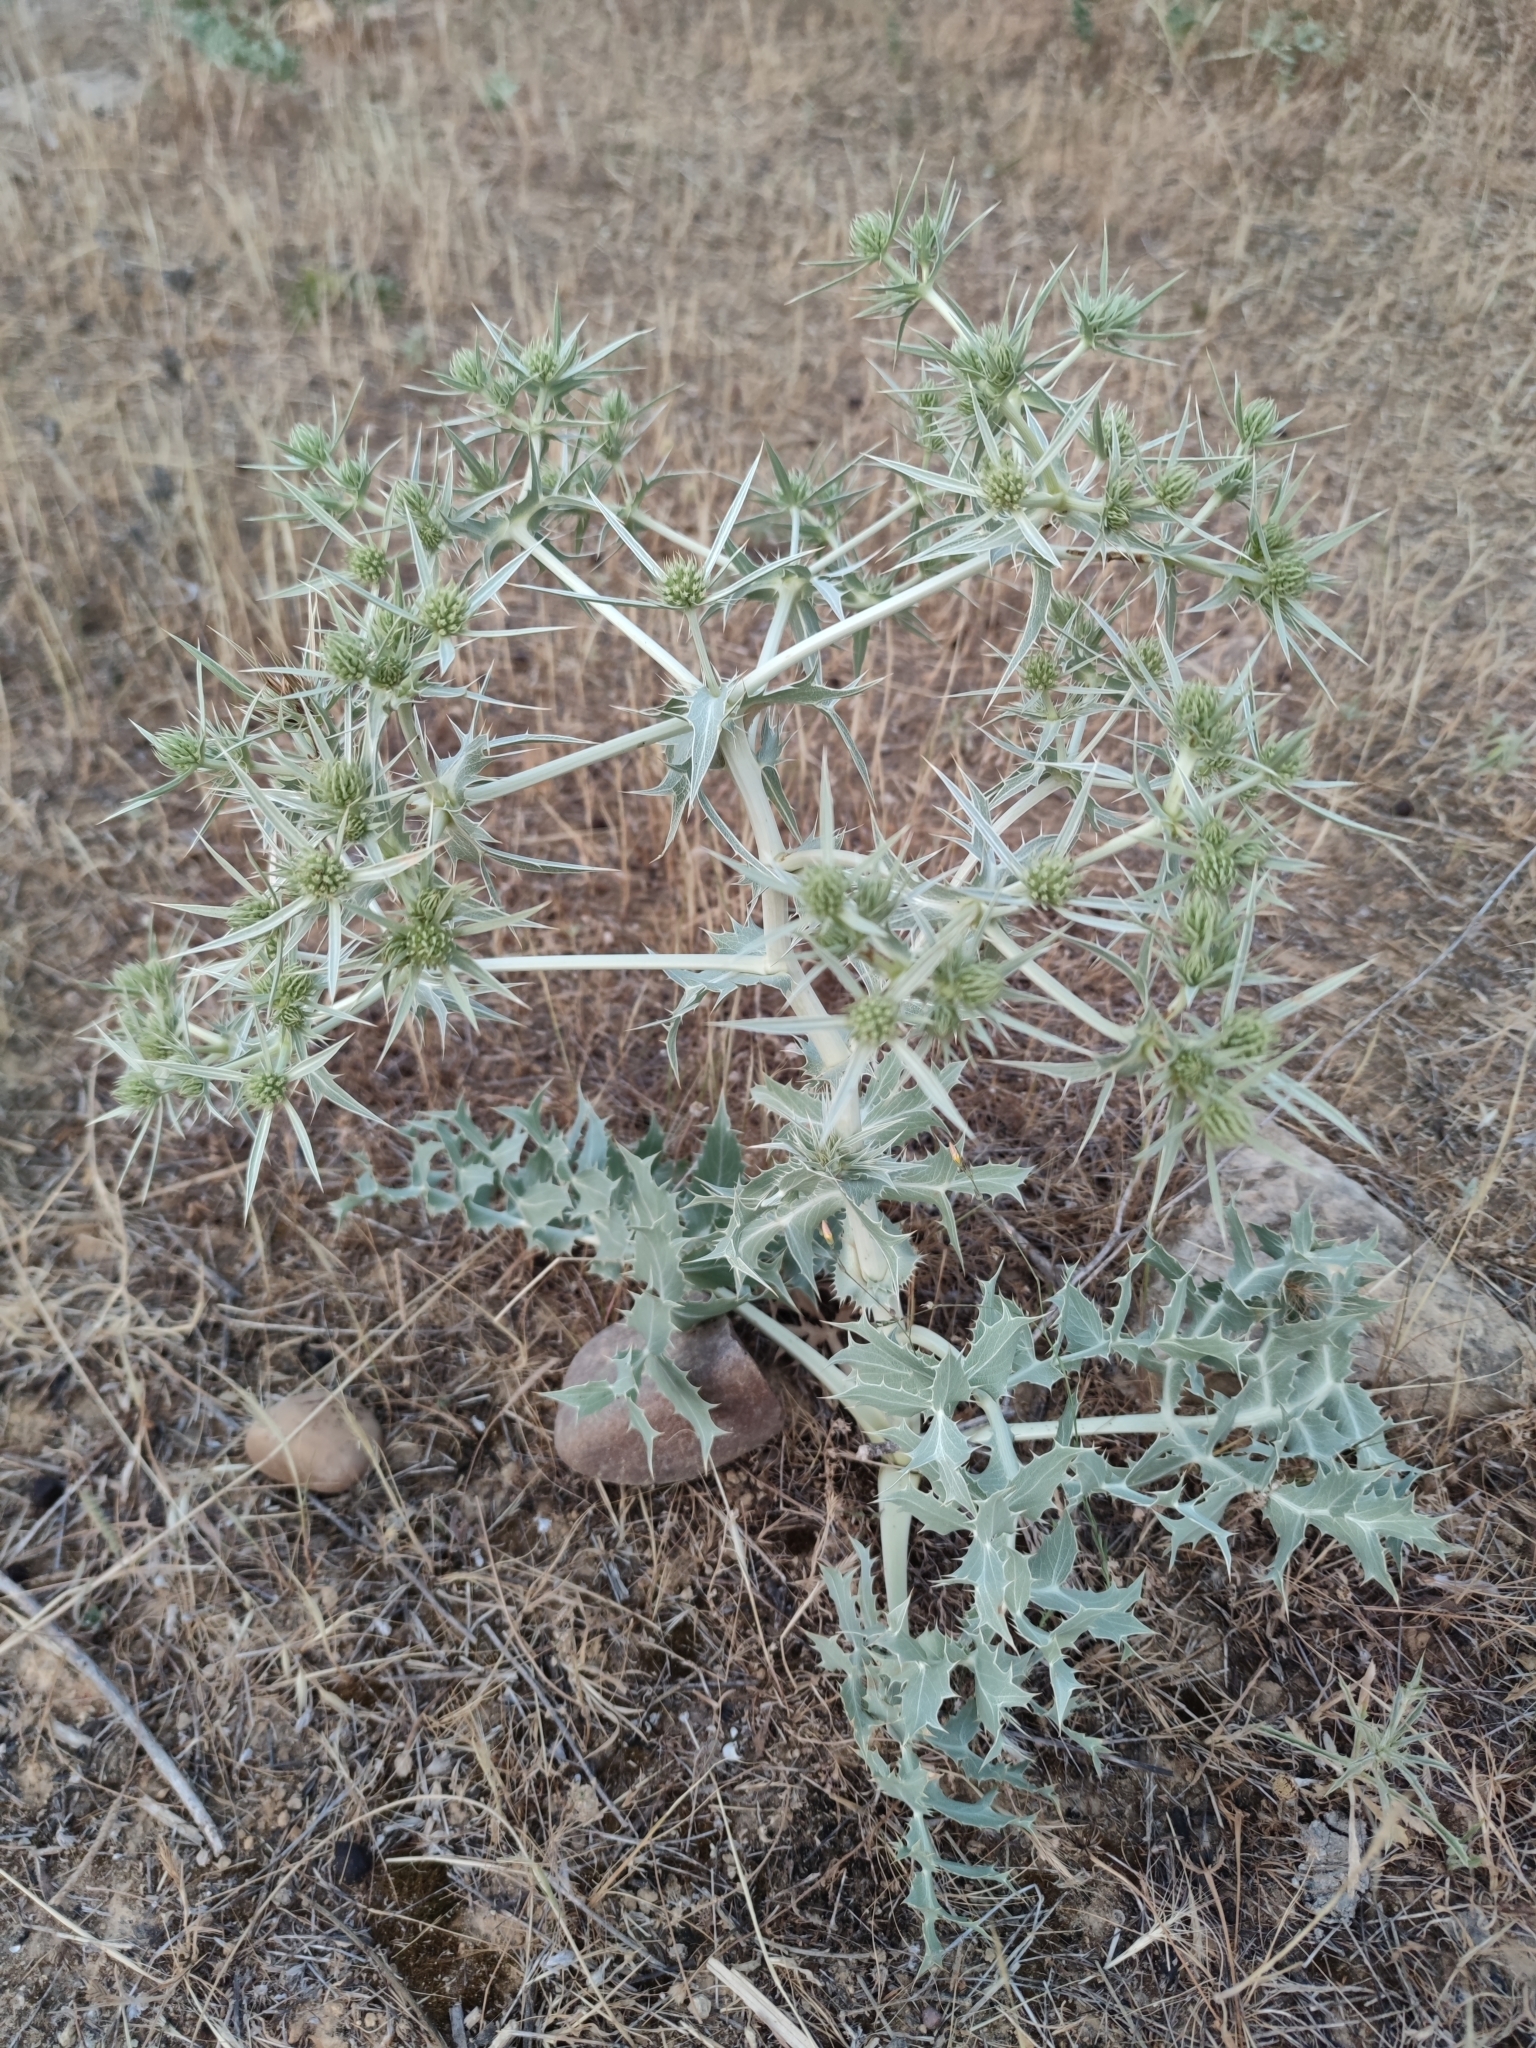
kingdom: Plantae
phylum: Tracheophyta
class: Magnoliopsida
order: Apiales
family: Apiaceae
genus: Eryngium
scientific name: Eryngium campestre
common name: Field eryngo
